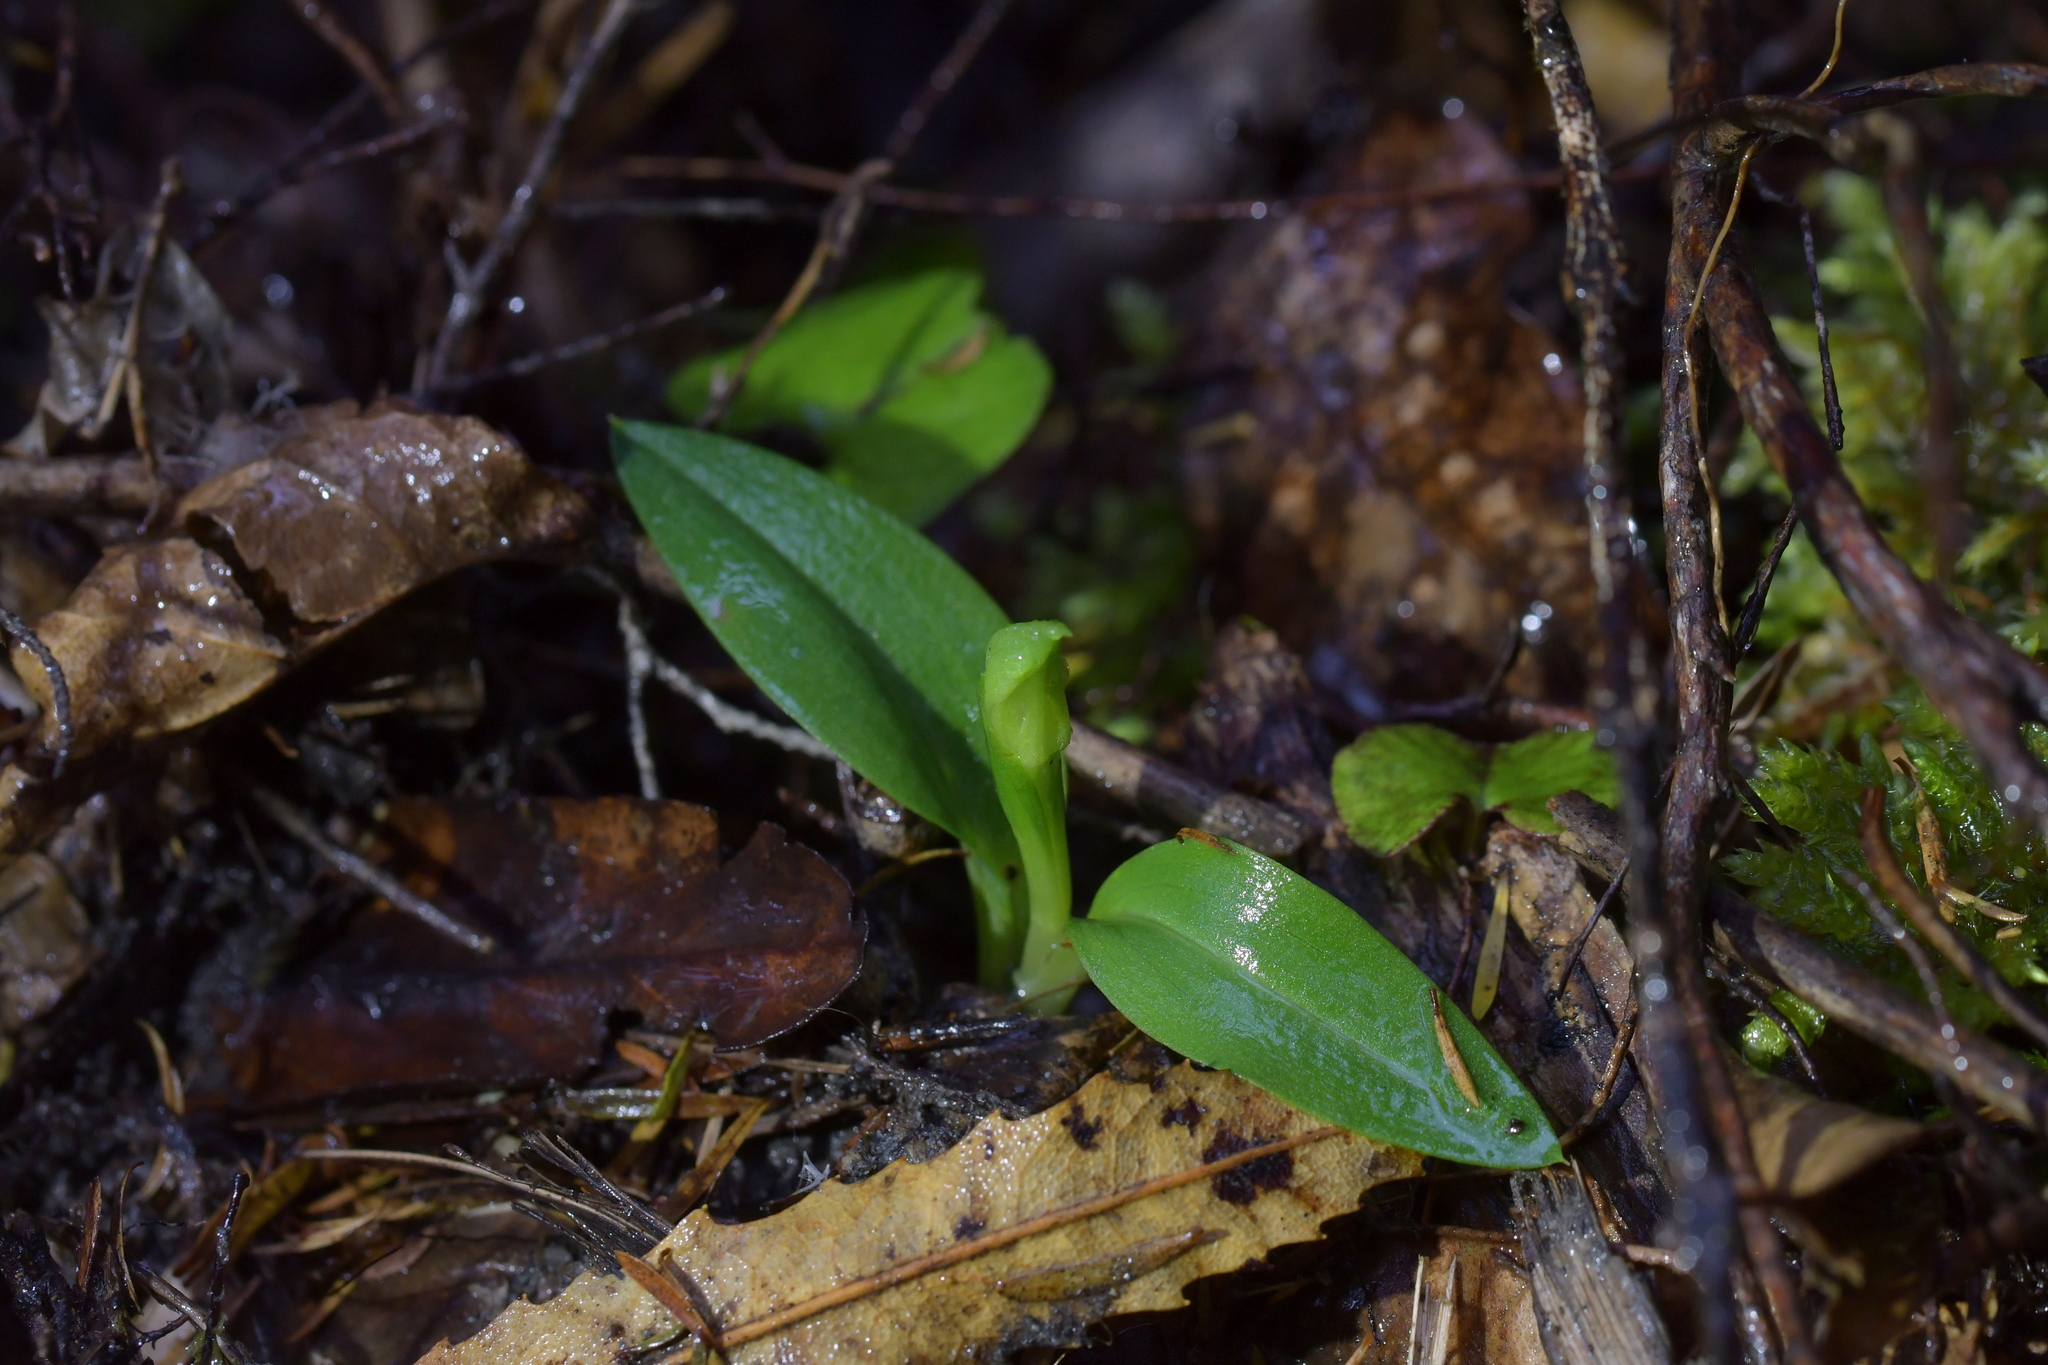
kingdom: Plantae
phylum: Tracheophyta
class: Liliopsida
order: Asparagales
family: Orchidaceae
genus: Chiloglottis
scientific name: Chiloglottis cornuta
